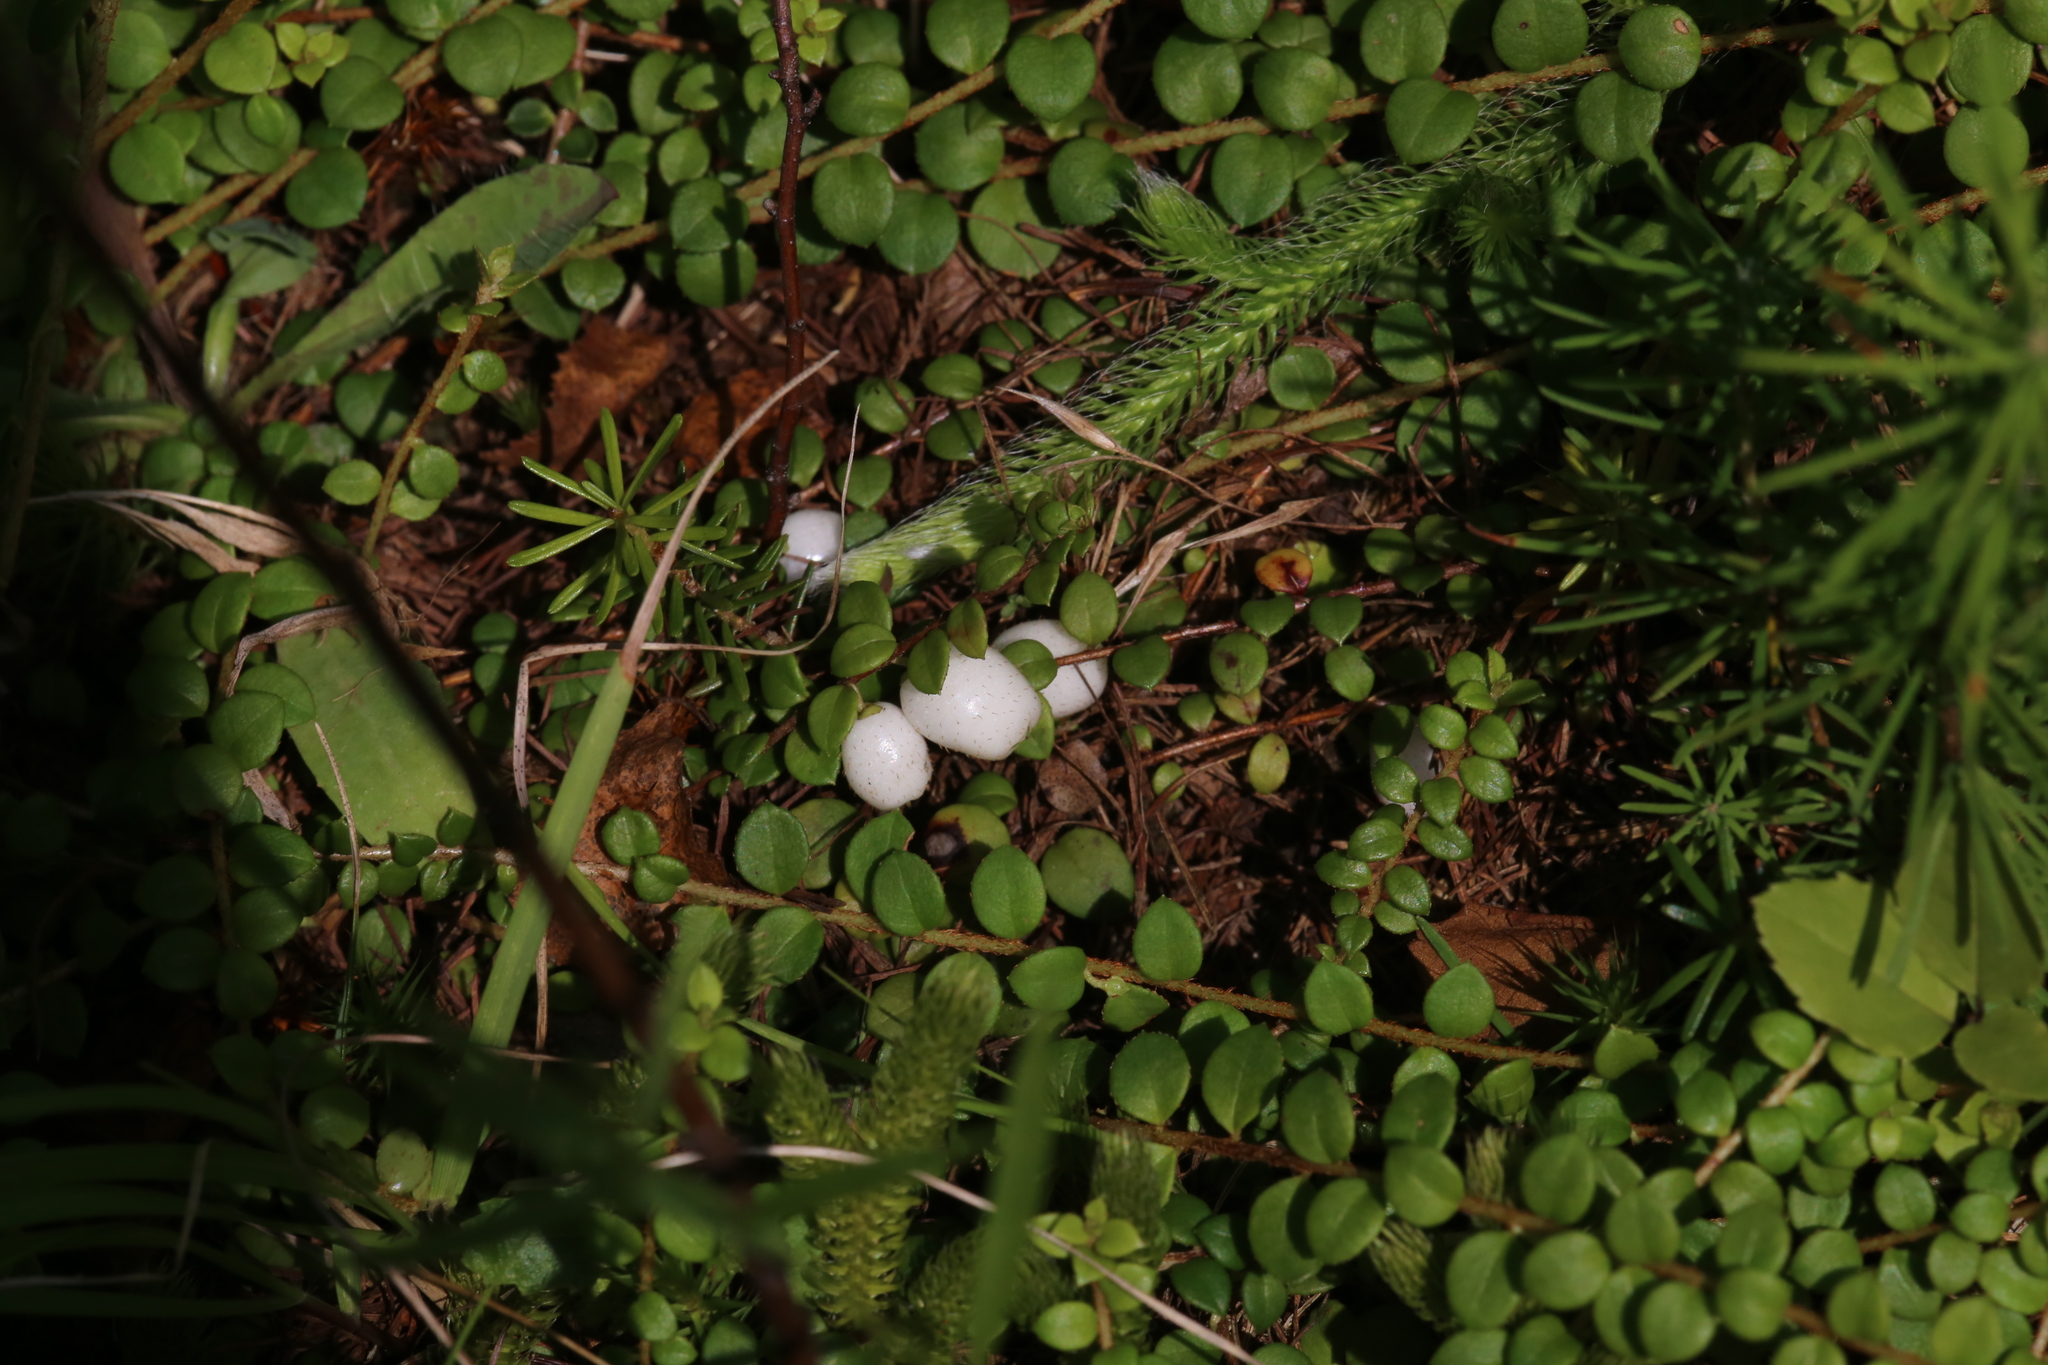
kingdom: Plantae
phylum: Tracheophyta
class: Magnoliopsida
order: Ericales
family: Ericaceae
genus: Gaultheria
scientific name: Gaultheria hispidula
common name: Cancer wintergreen
